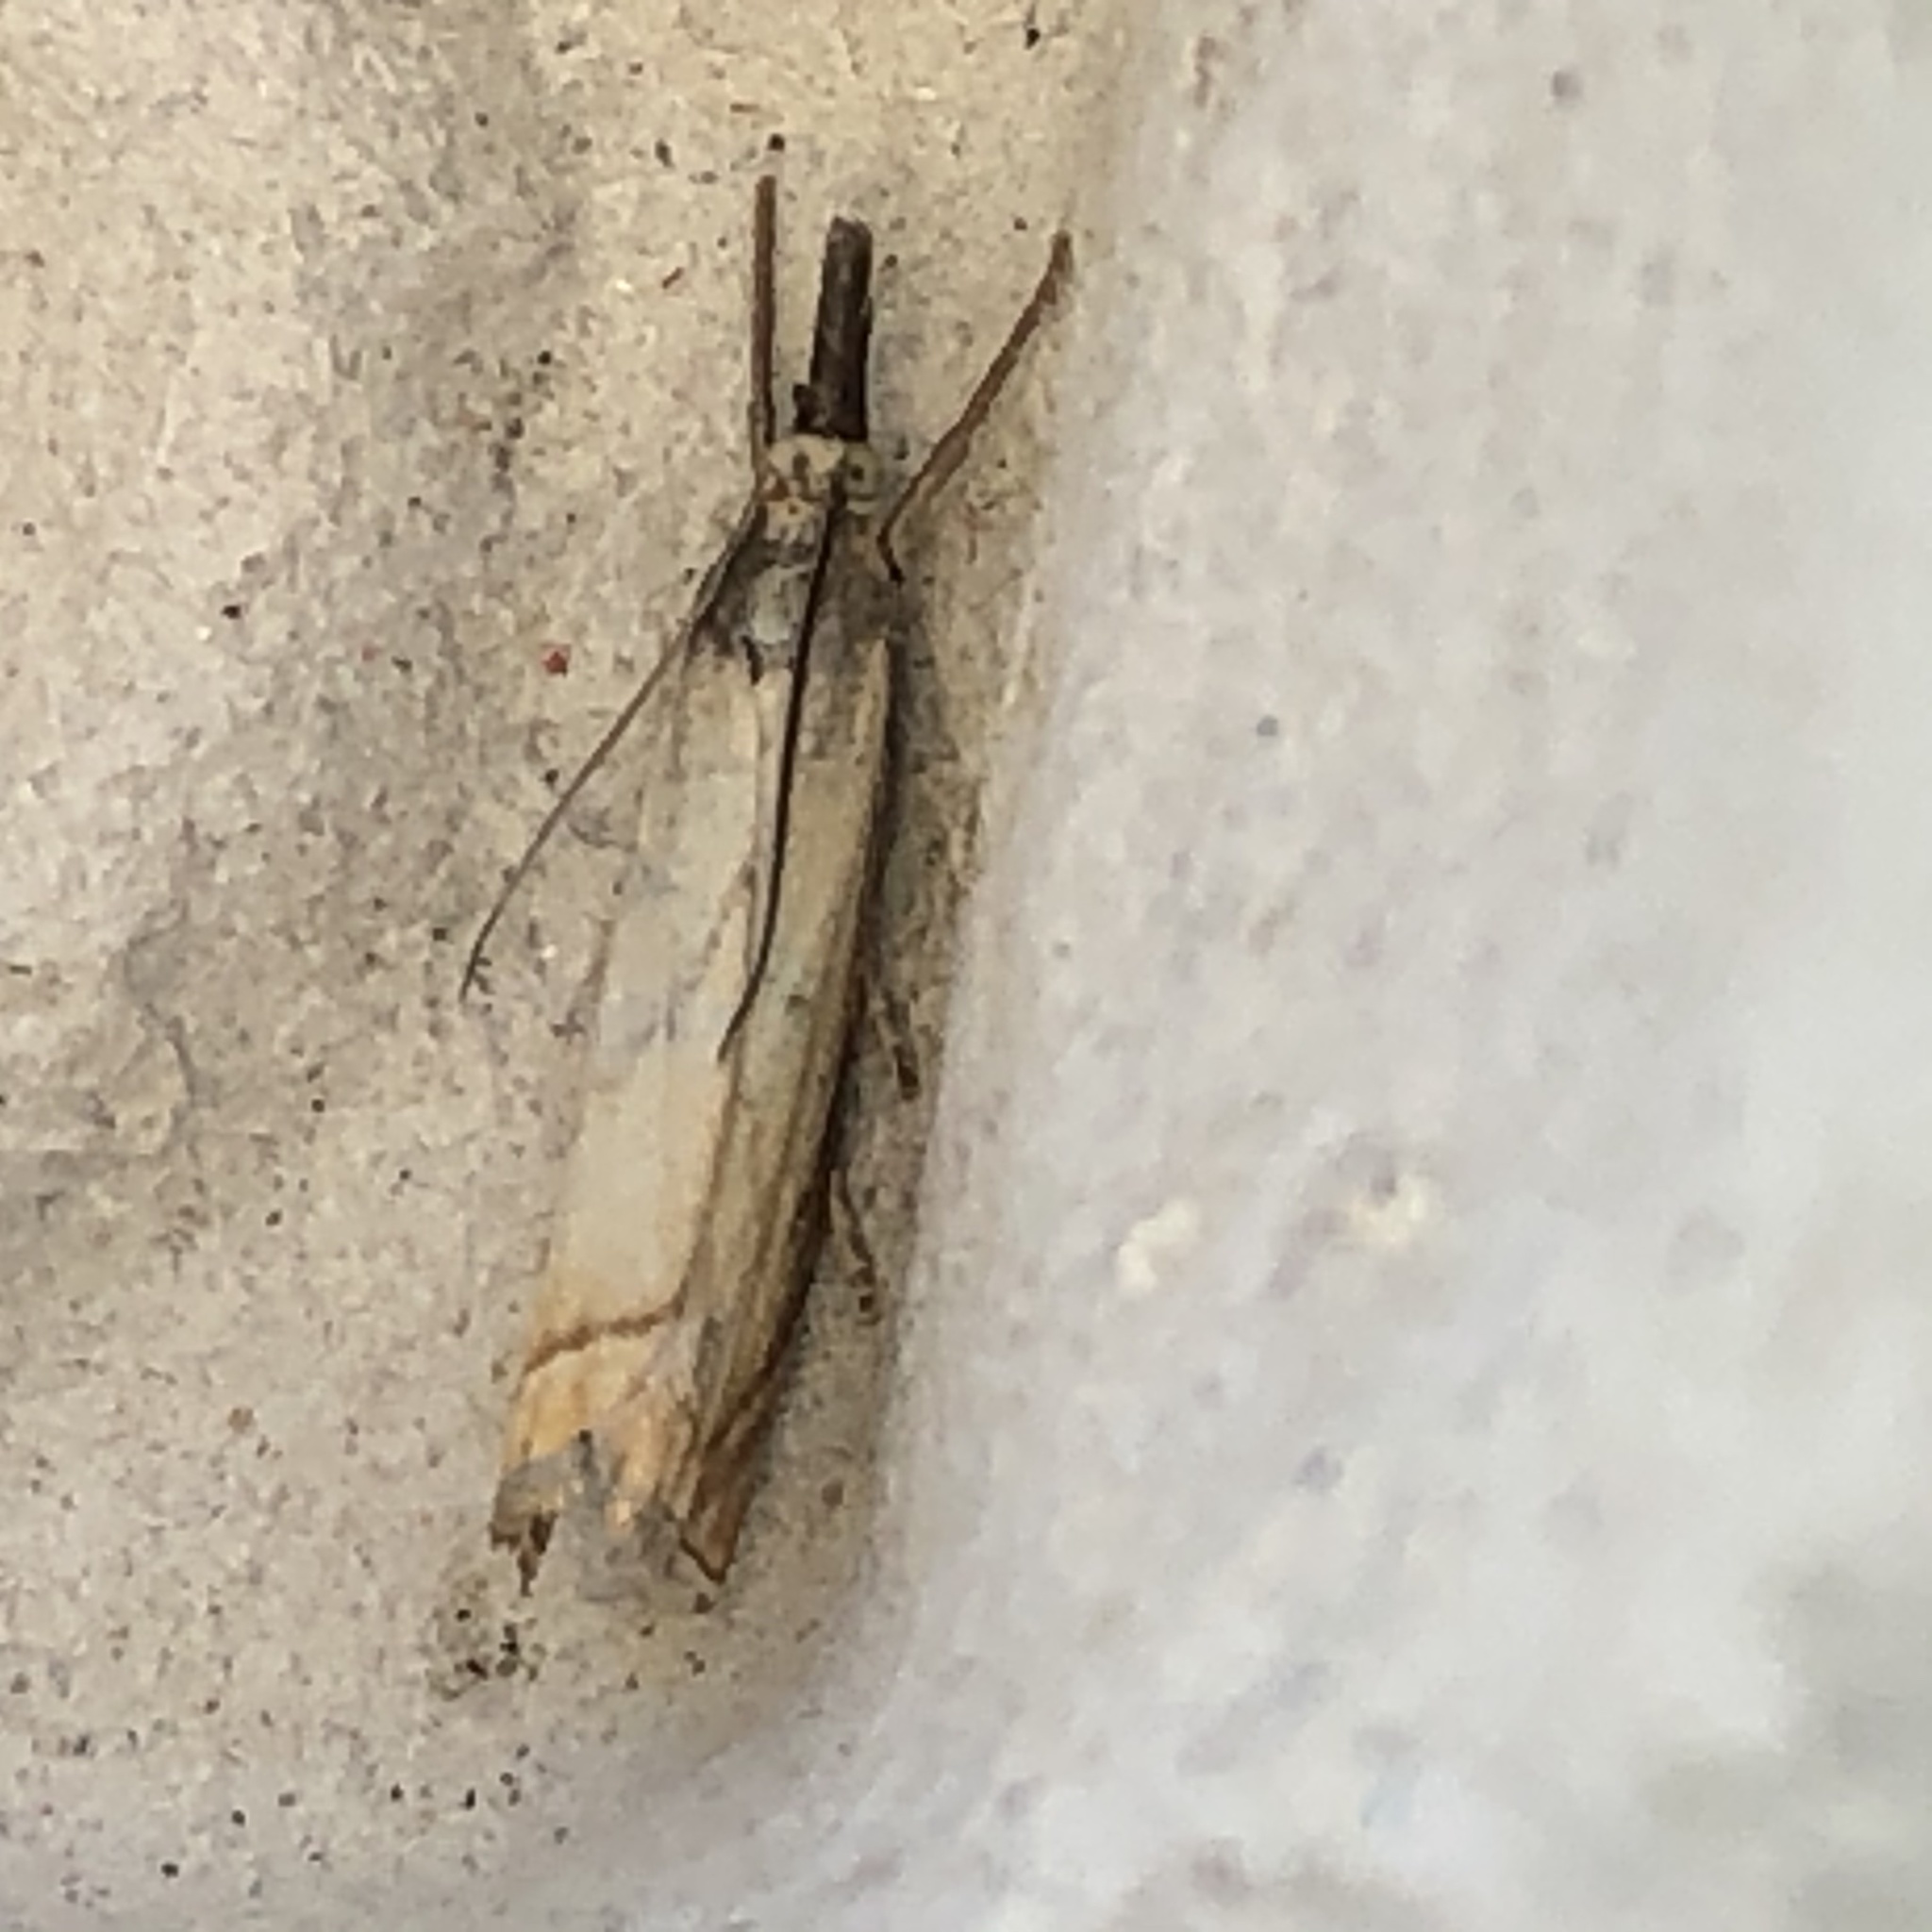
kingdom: Animalia
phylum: Arthropoda
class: Insecta
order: Lepidoptera
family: Crambidae
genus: Chrysoteuchia
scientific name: Chrysoteuchia culmella
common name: Garden grass-veneer
